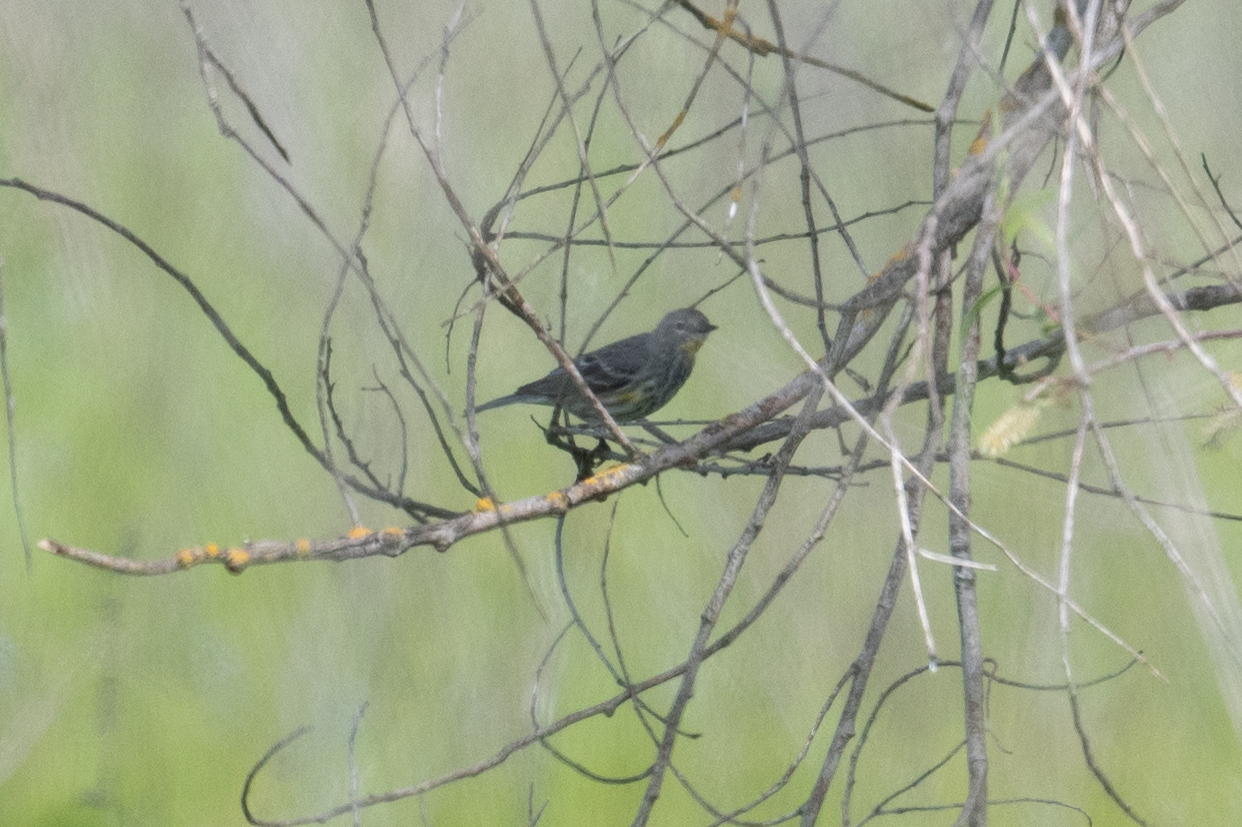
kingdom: Animalia
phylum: Chordata
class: Aves
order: Passeriformes
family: Parulidae
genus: Setophaga
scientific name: Setophaga coronata
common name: Myrtle warbler
